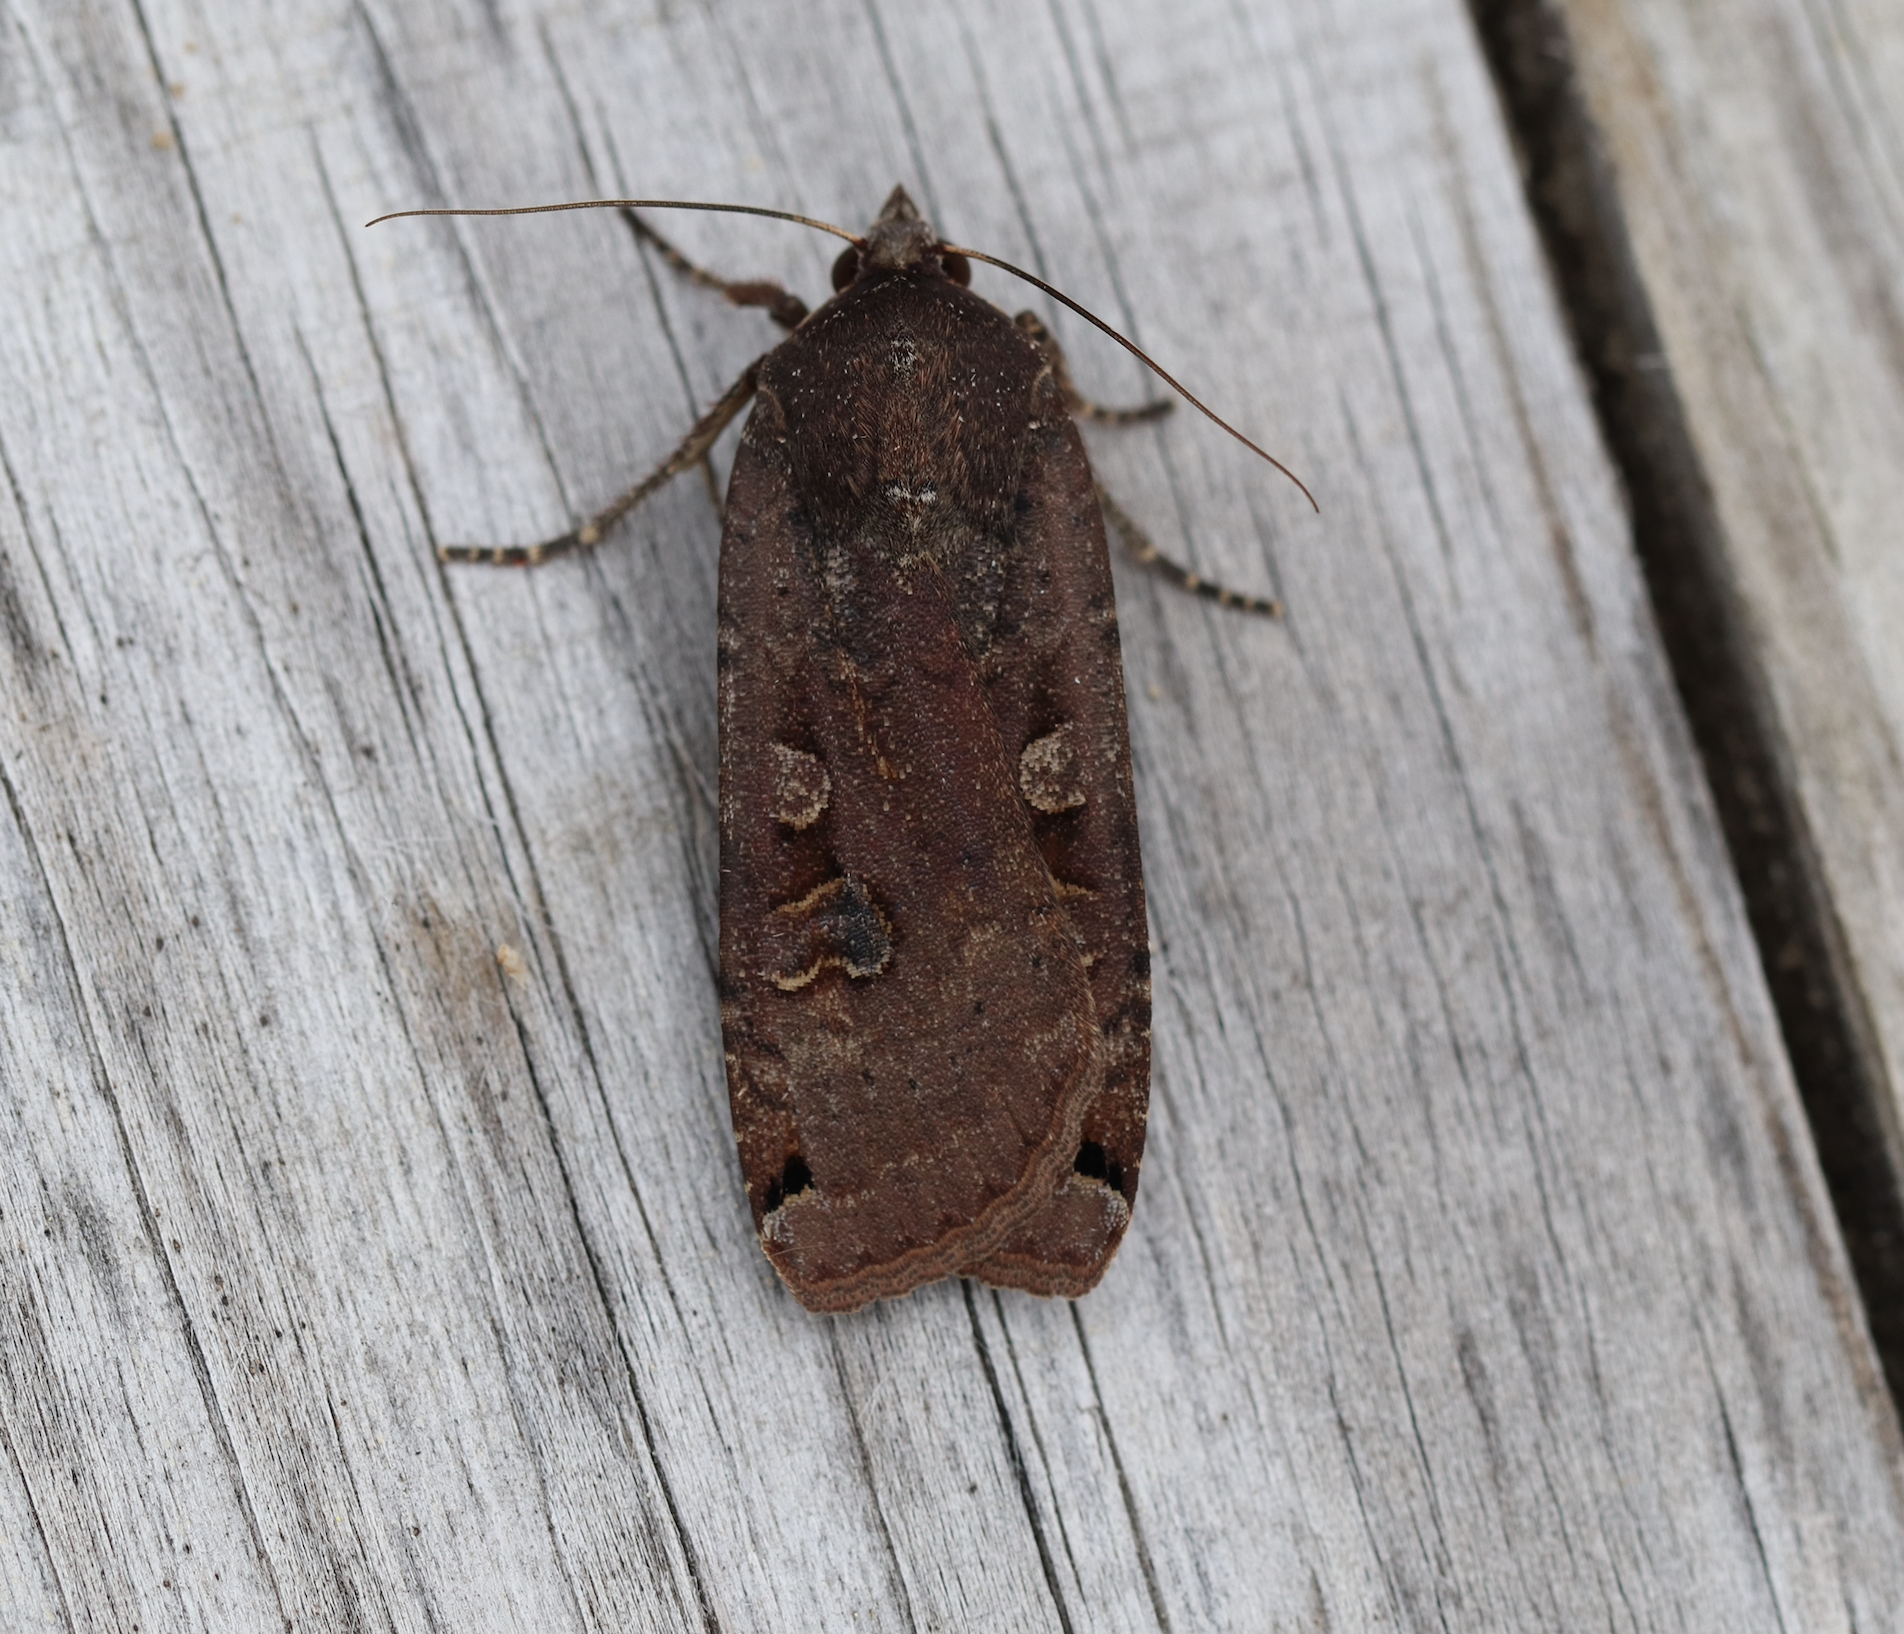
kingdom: Animalia
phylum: Arthropoda
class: Insecta
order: Lepidoptera
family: Noctuidae
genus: Noctua
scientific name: Noctua pronuba
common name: Large yellow underwing
